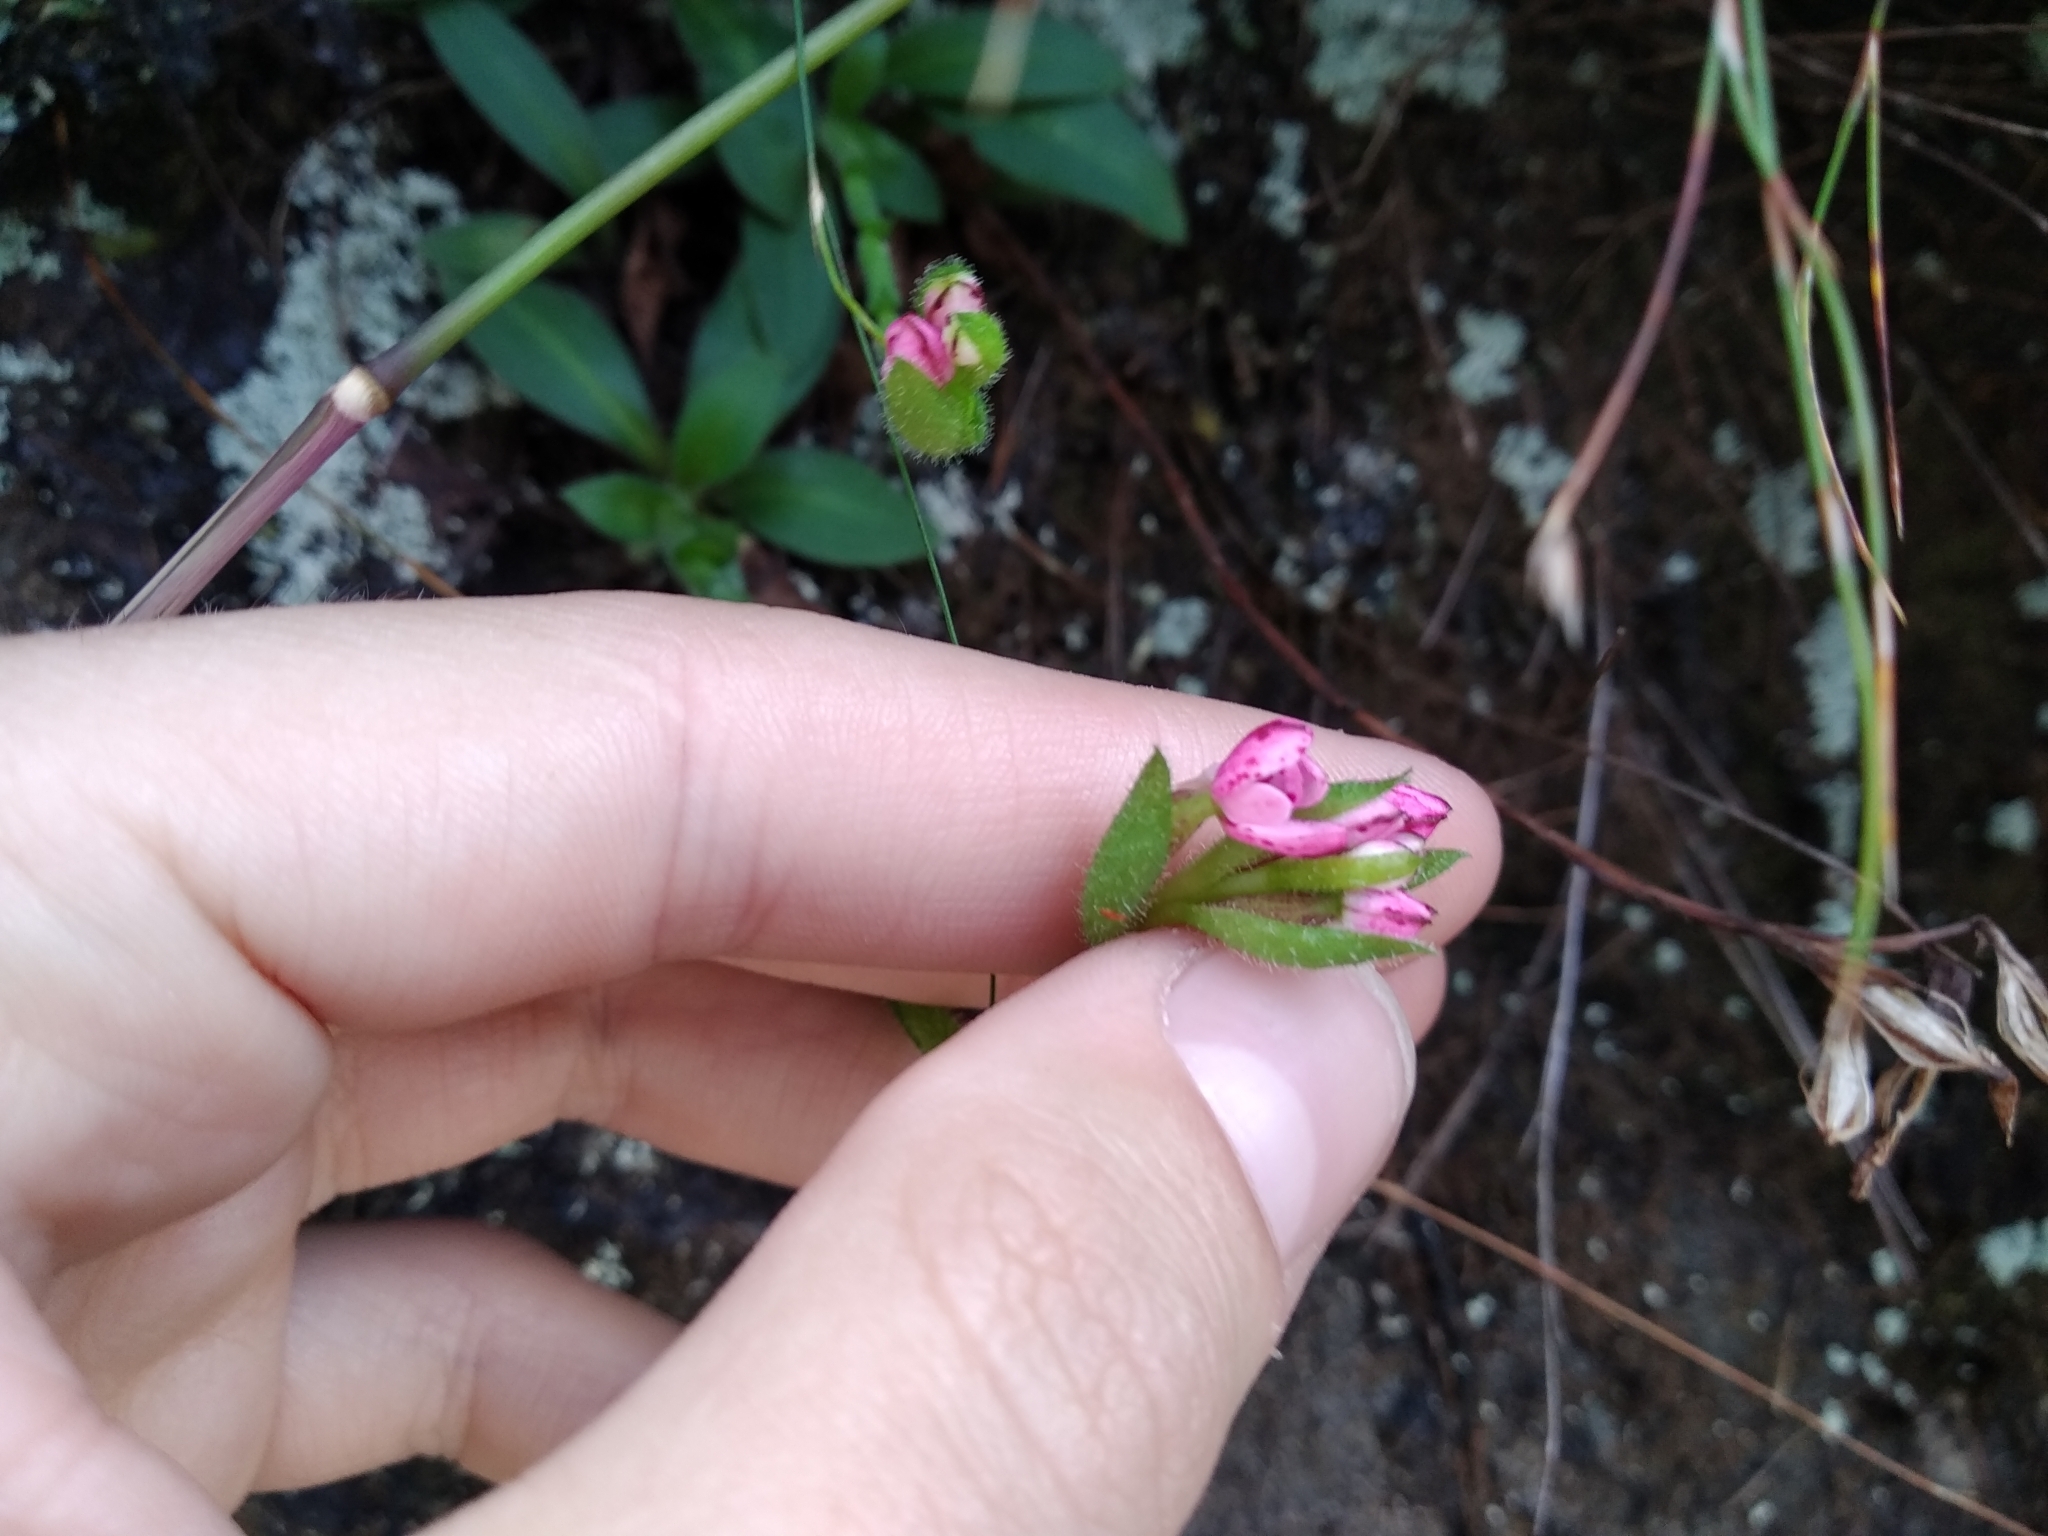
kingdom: Plantae
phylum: Tracheophyta
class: Liliopsida
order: Asparagales
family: Orchidaceae
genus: Disa
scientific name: Disa glandulosa
